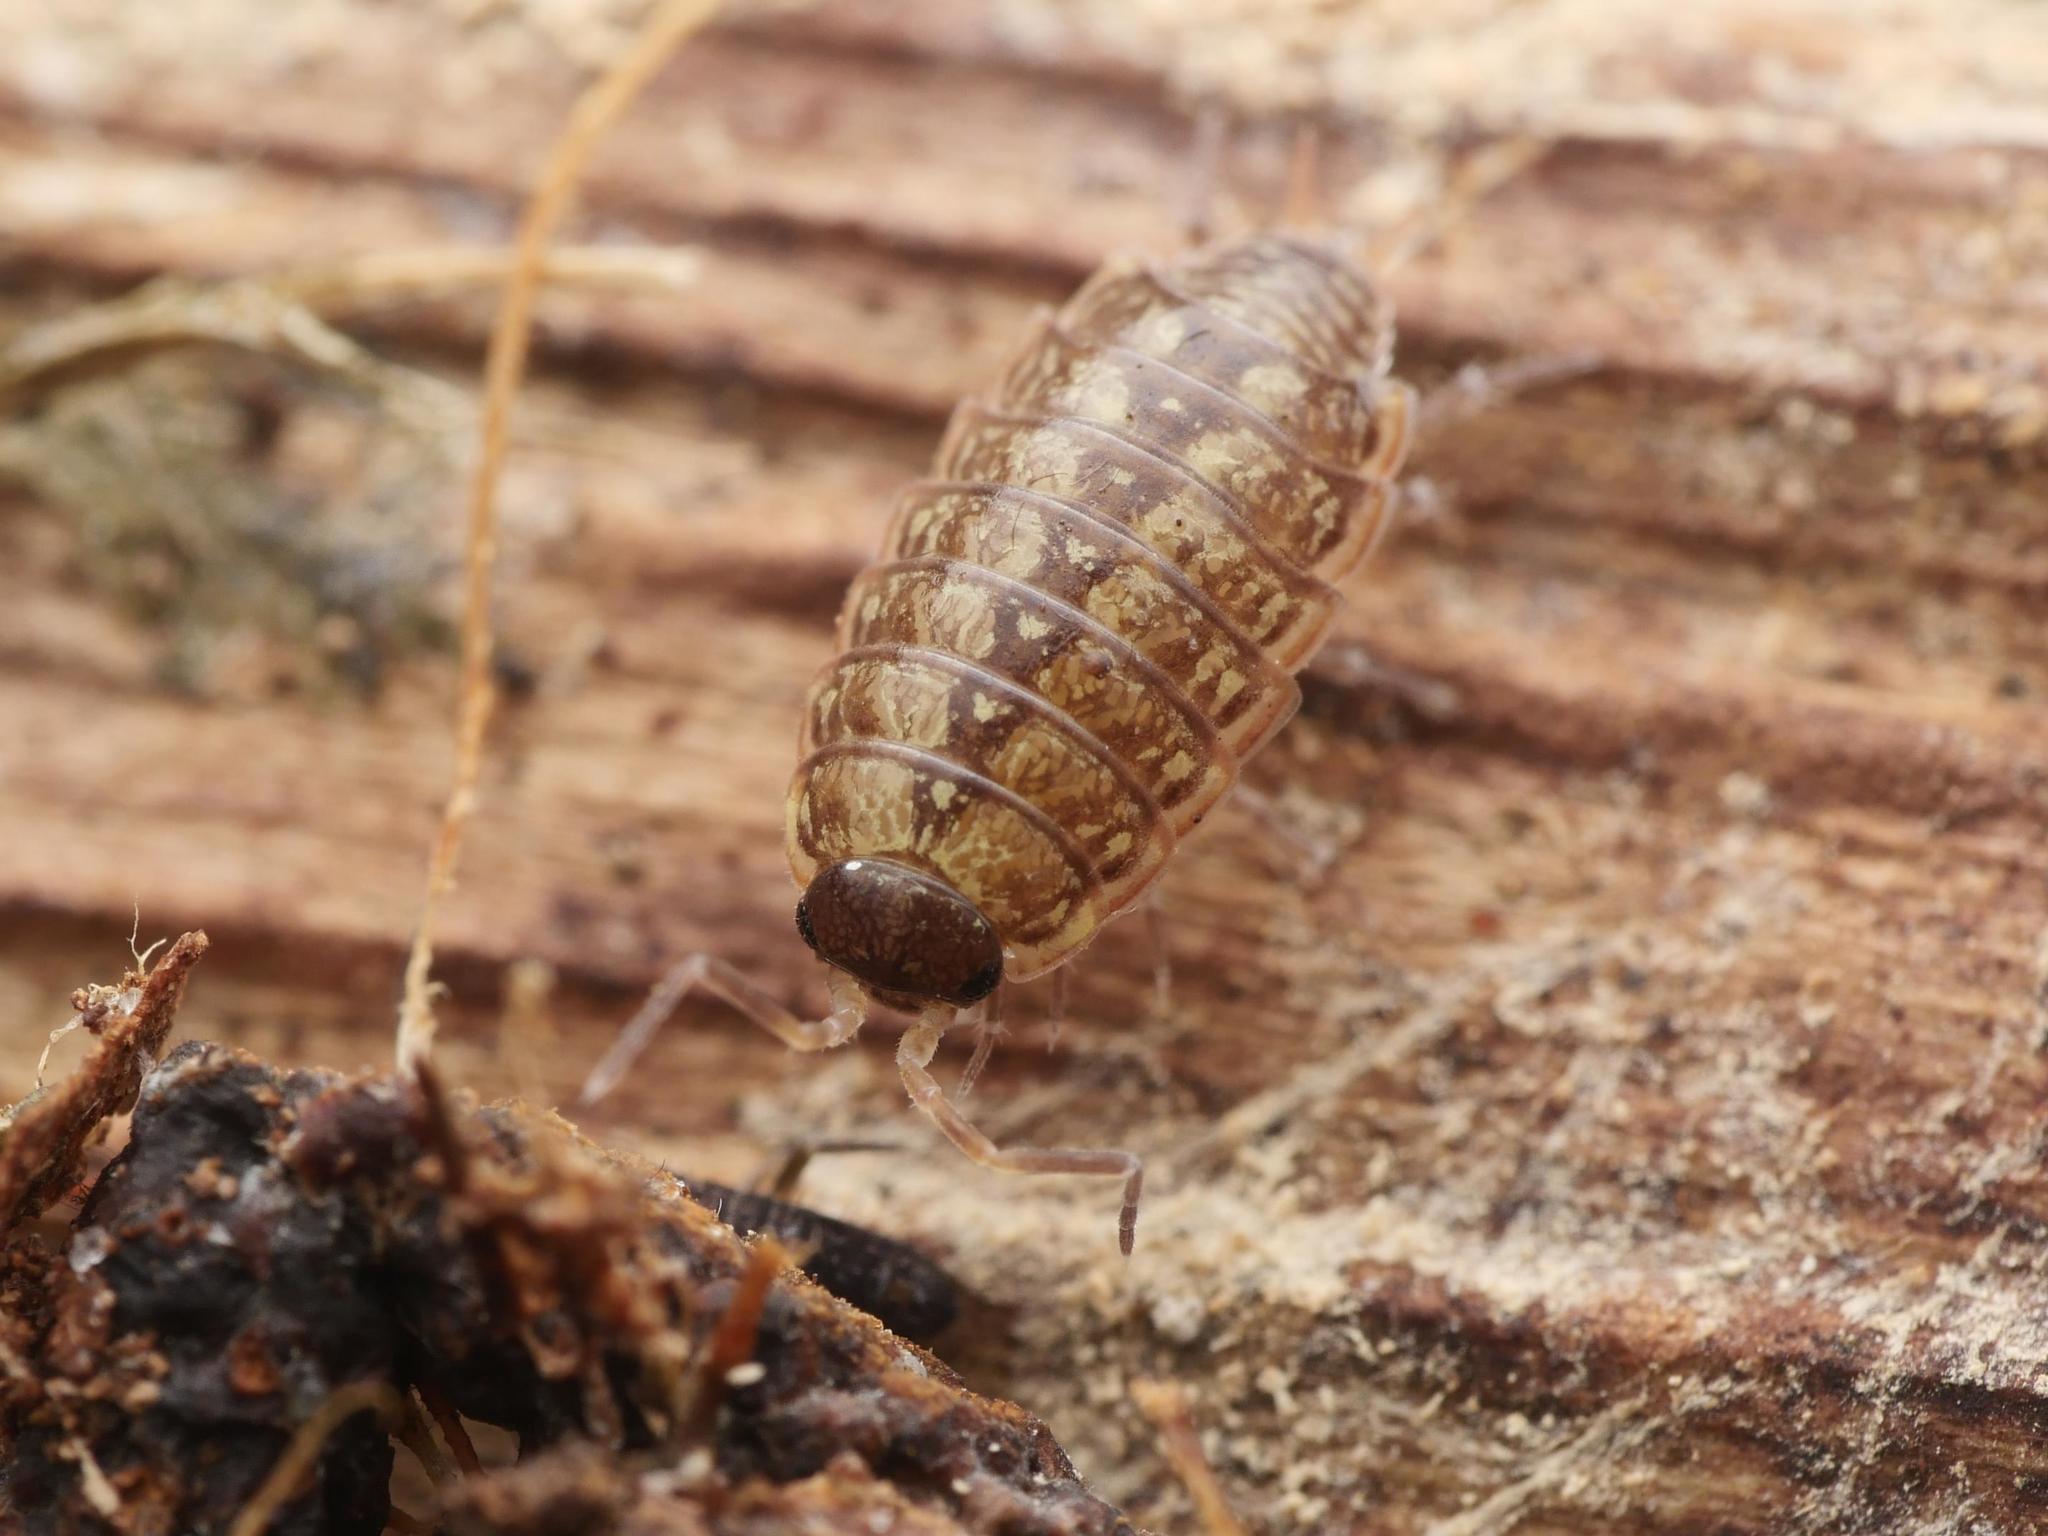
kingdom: Animalia
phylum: Arthropoda
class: Malacostraca
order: Isopoda
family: Philosciidae
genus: Philoscia
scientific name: Philoscia muscorum
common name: Common striped woodlouse
